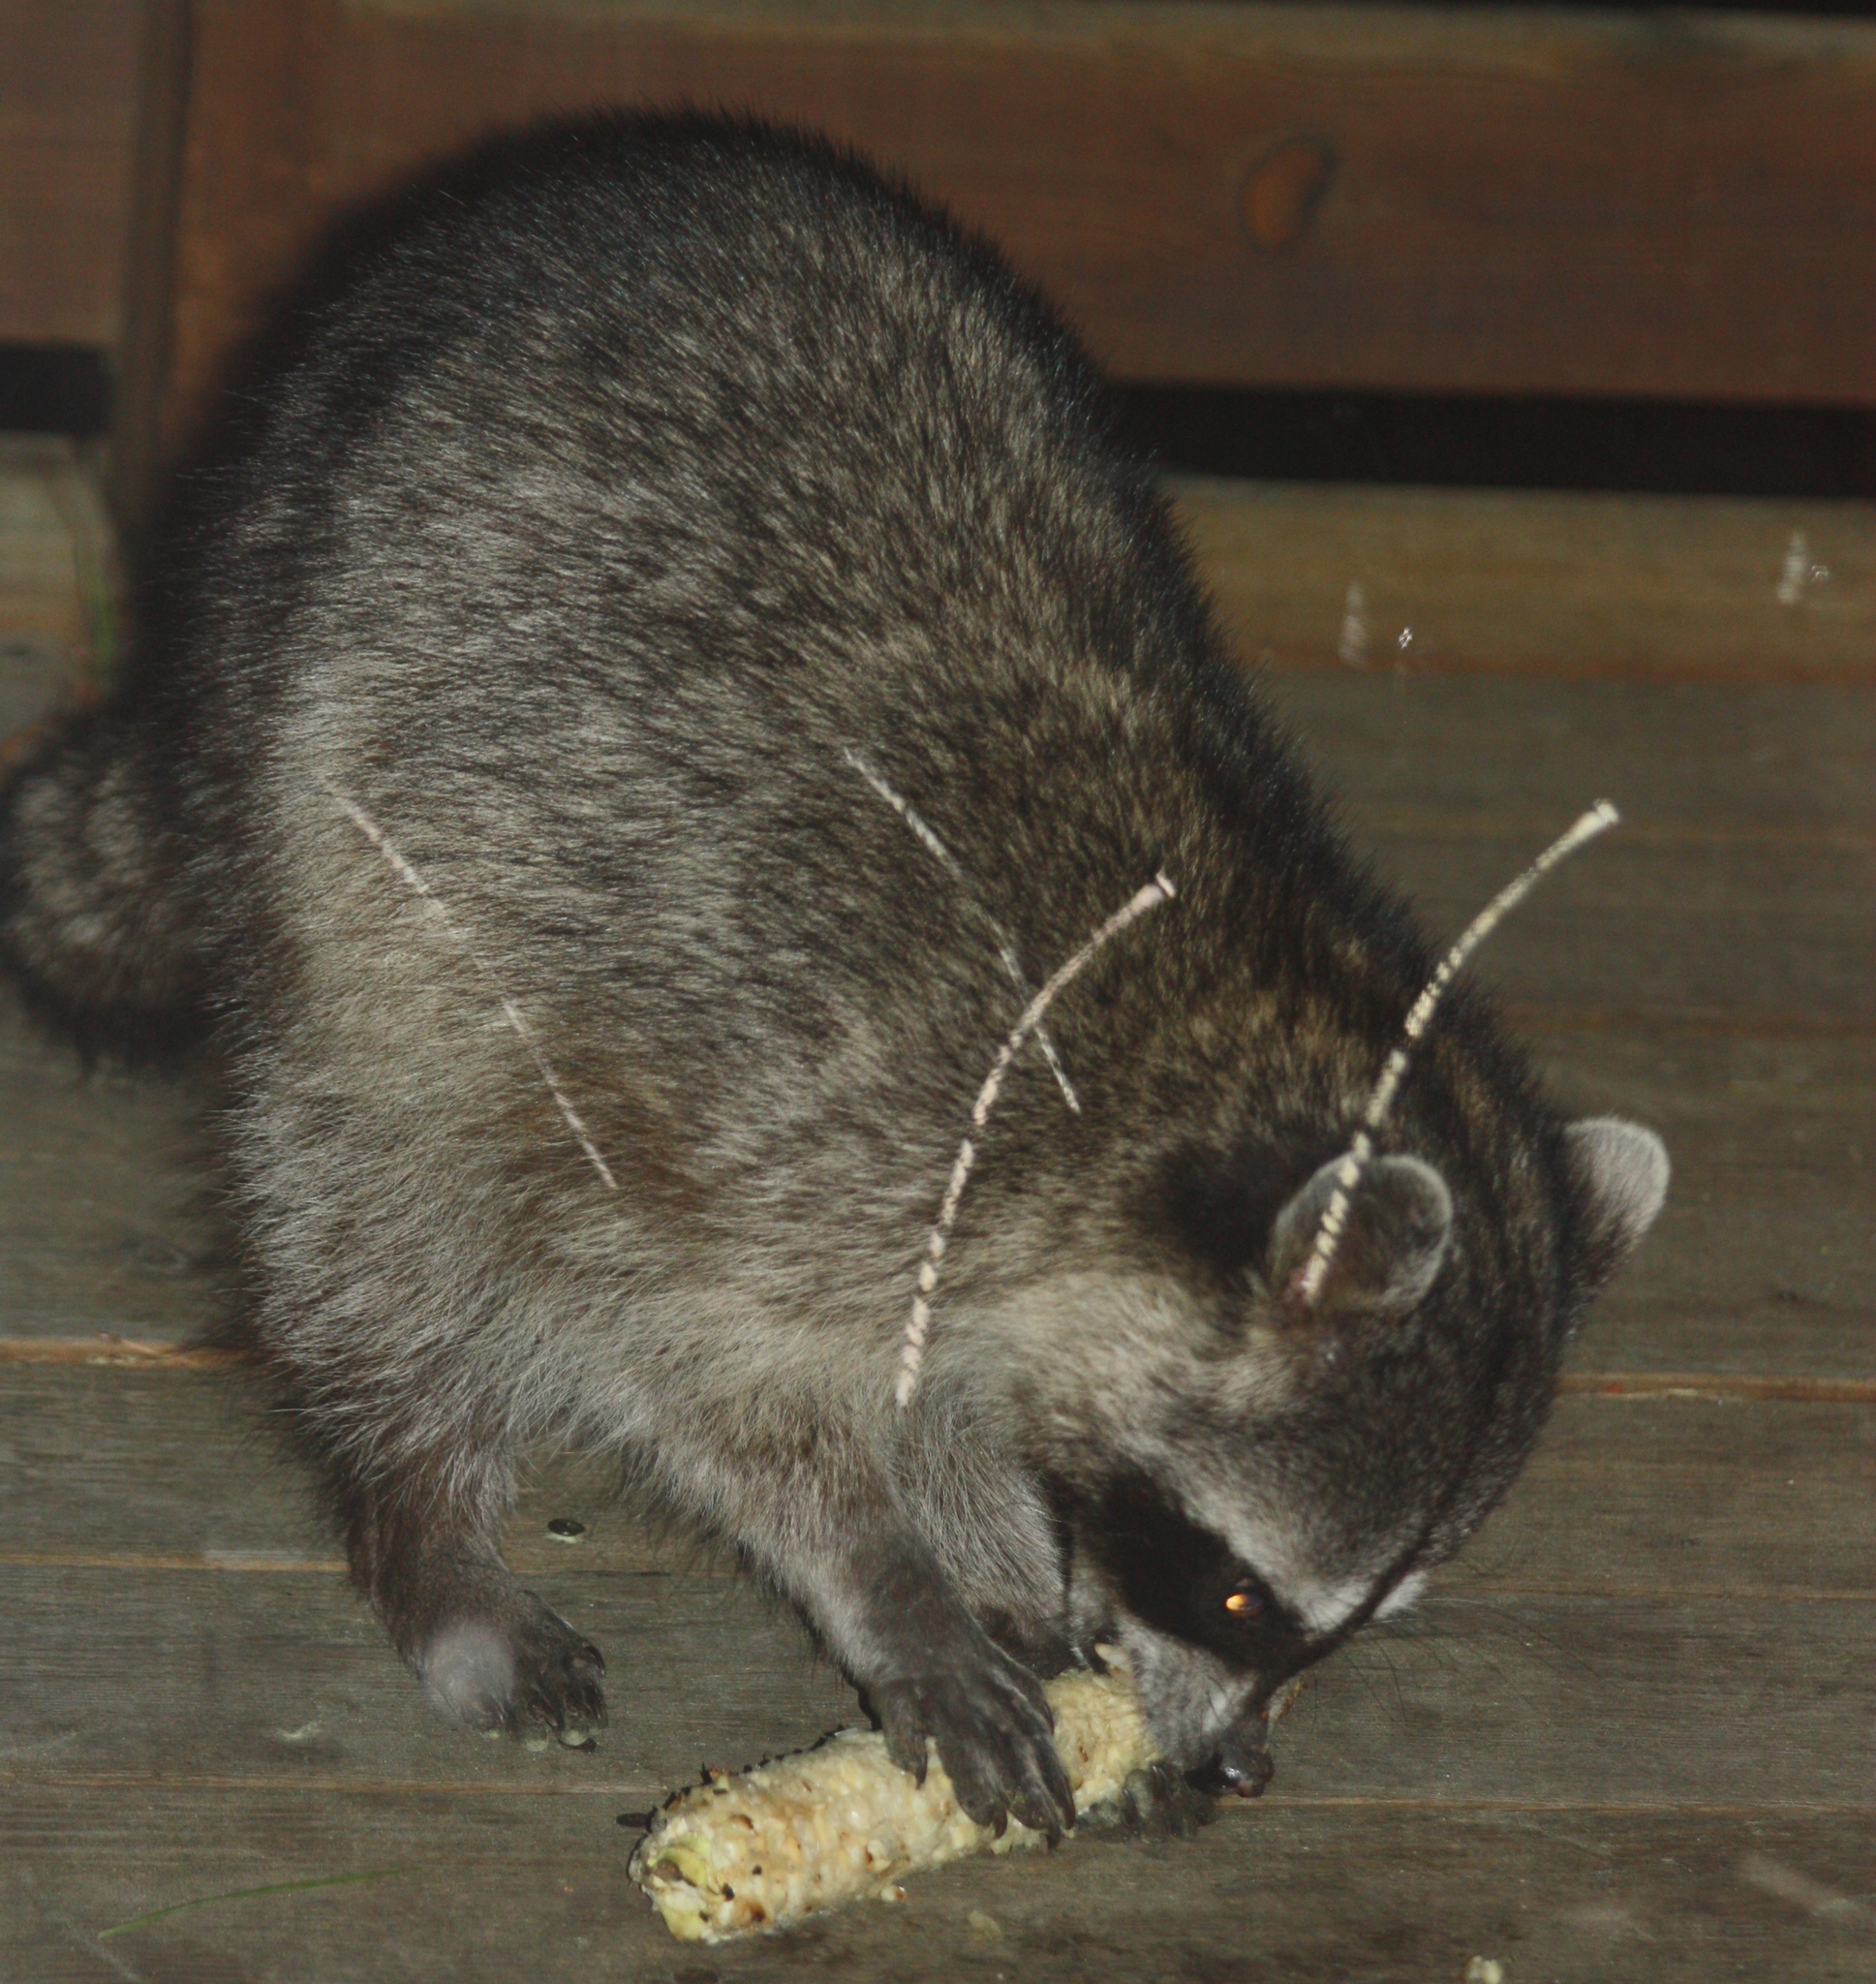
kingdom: Animalia
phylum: Chordata
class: Mammalia
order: Carnivora
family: Procyonidae
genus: Procyon
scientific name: Procyon lotor
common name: Raccoon
